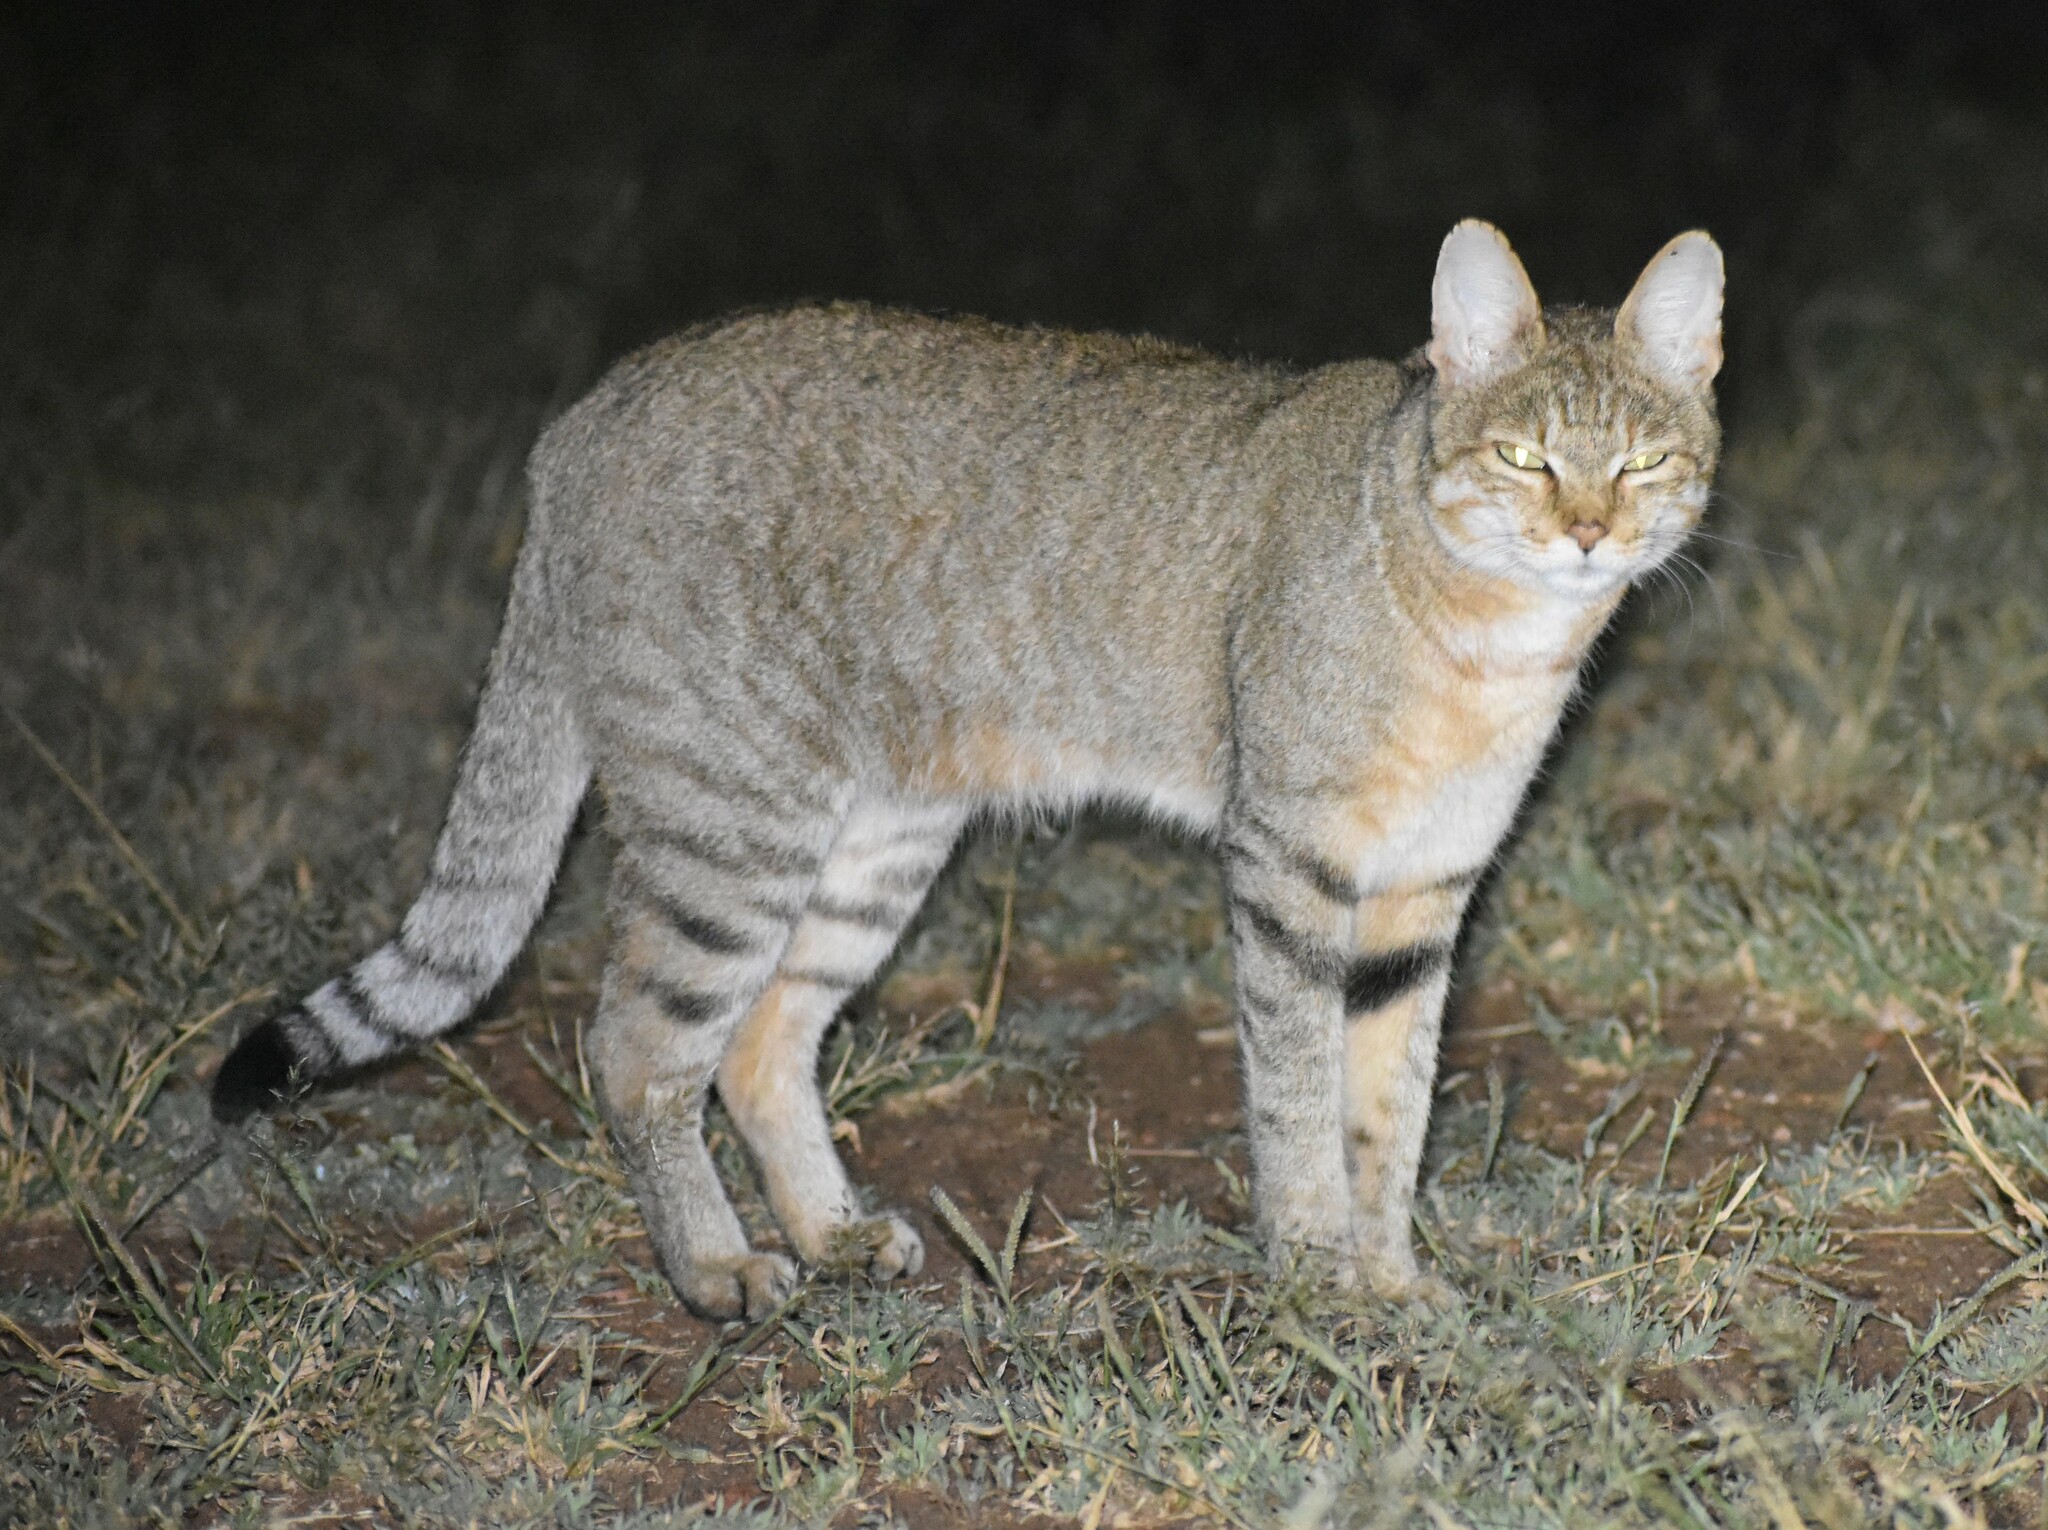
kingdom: Animalia
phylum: Chordata
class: Mammalia
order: Carnivora
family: Felidae
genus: Felis
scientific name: Felis silvestris
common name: Wildcat
